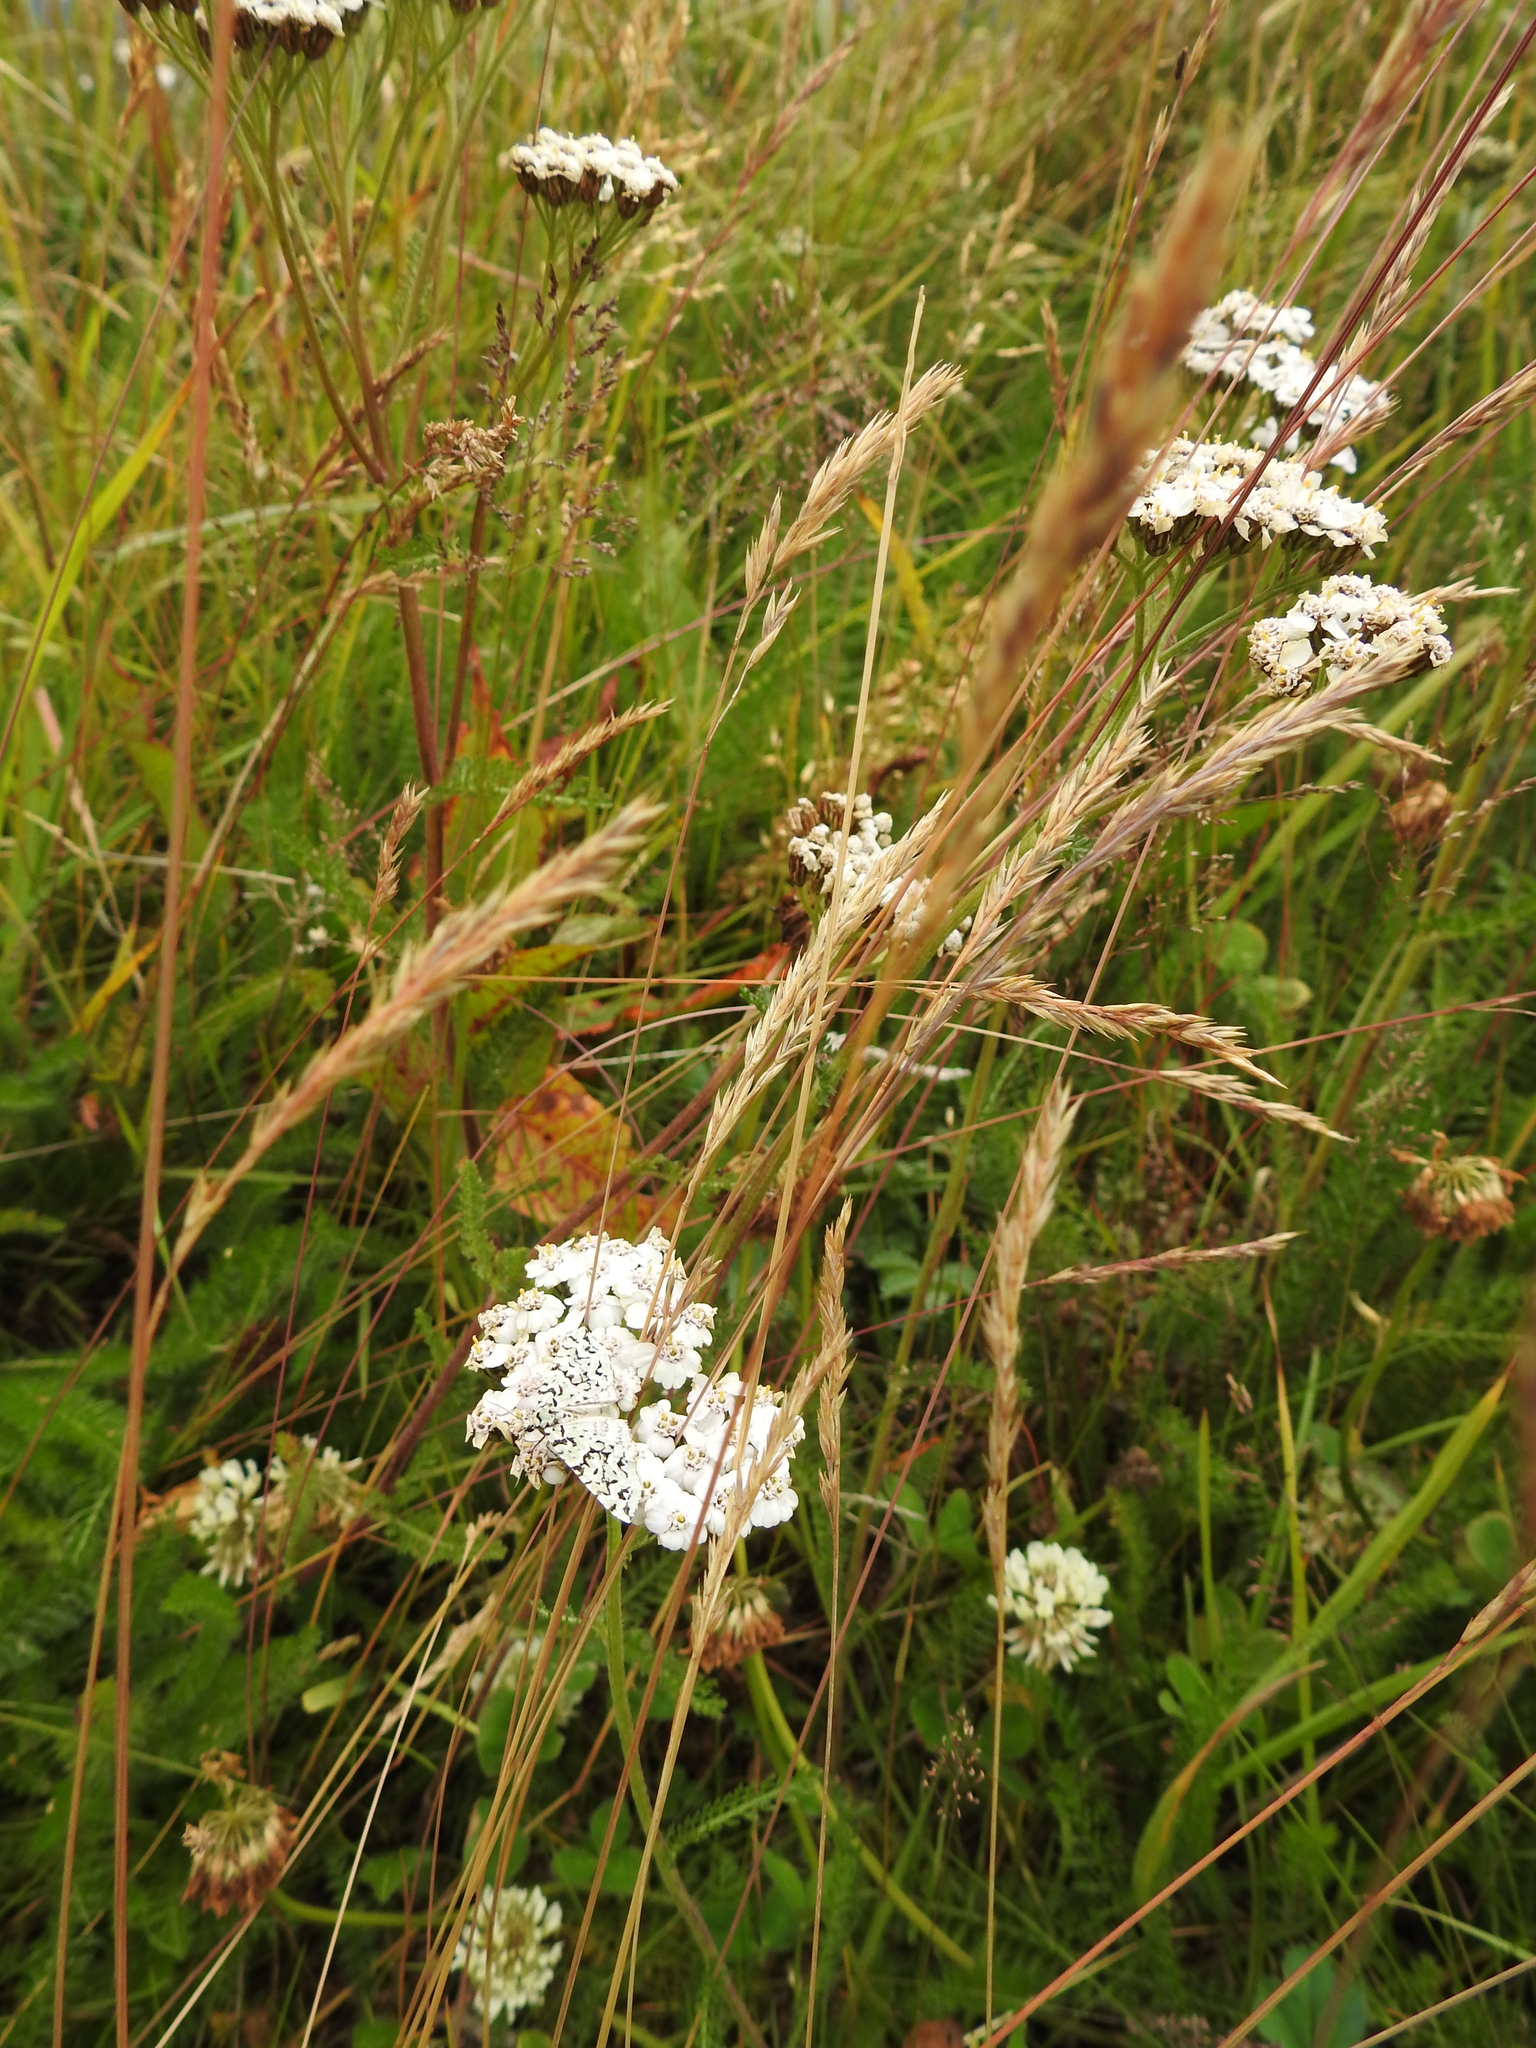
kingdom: Animalia
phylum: Arthropoda
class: Insecta
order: Lepidoptera
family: Geometridae
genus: Danielaparra
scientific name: Danielaparra fragmentata
